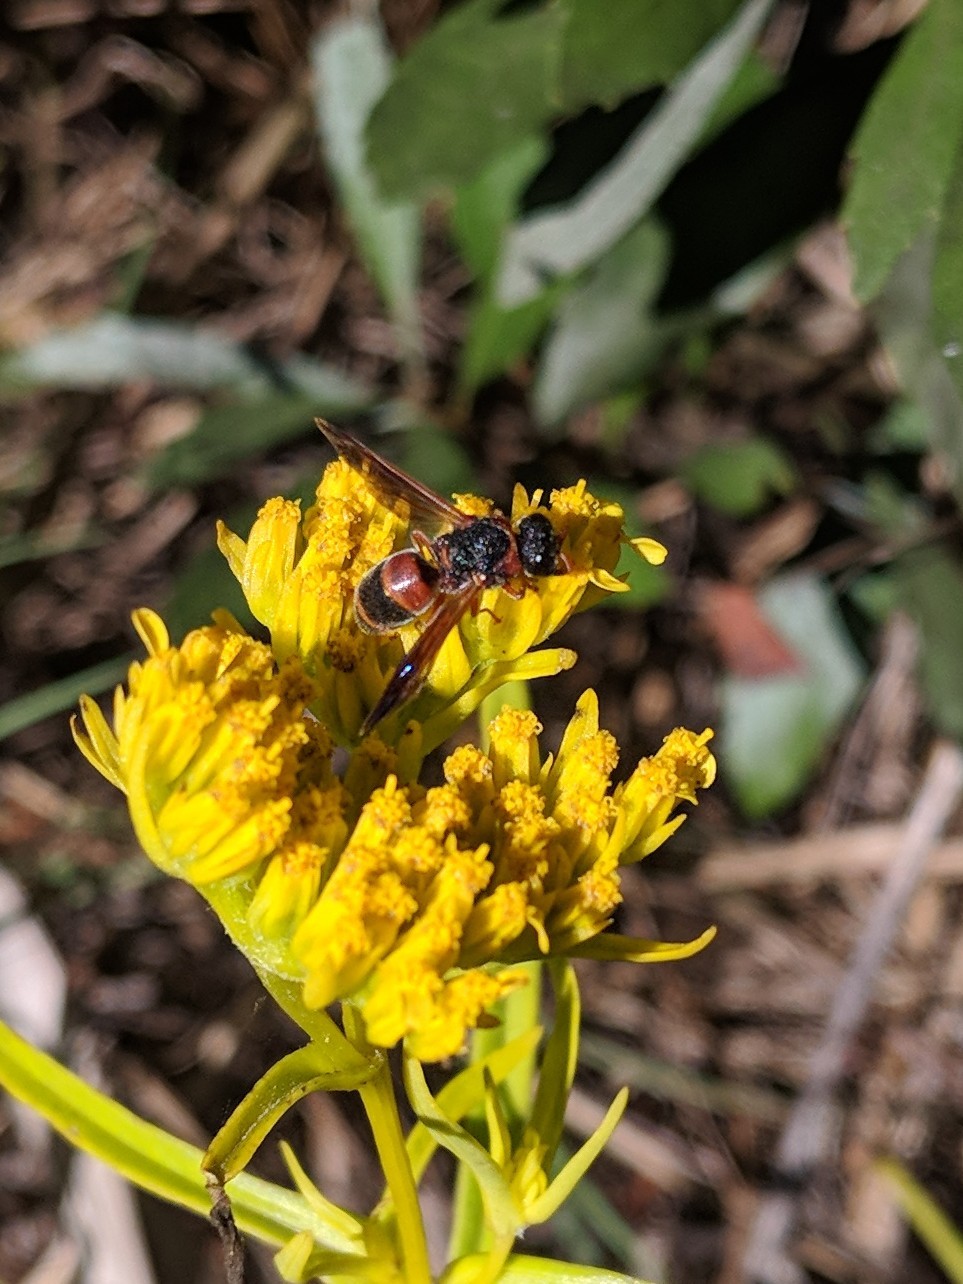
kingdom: Animalia
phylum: Arthropoda
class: Insecta
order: Hymenoptera
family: Eumenidae
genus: Pachodynerus
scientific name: Pachodynerus erynnis
